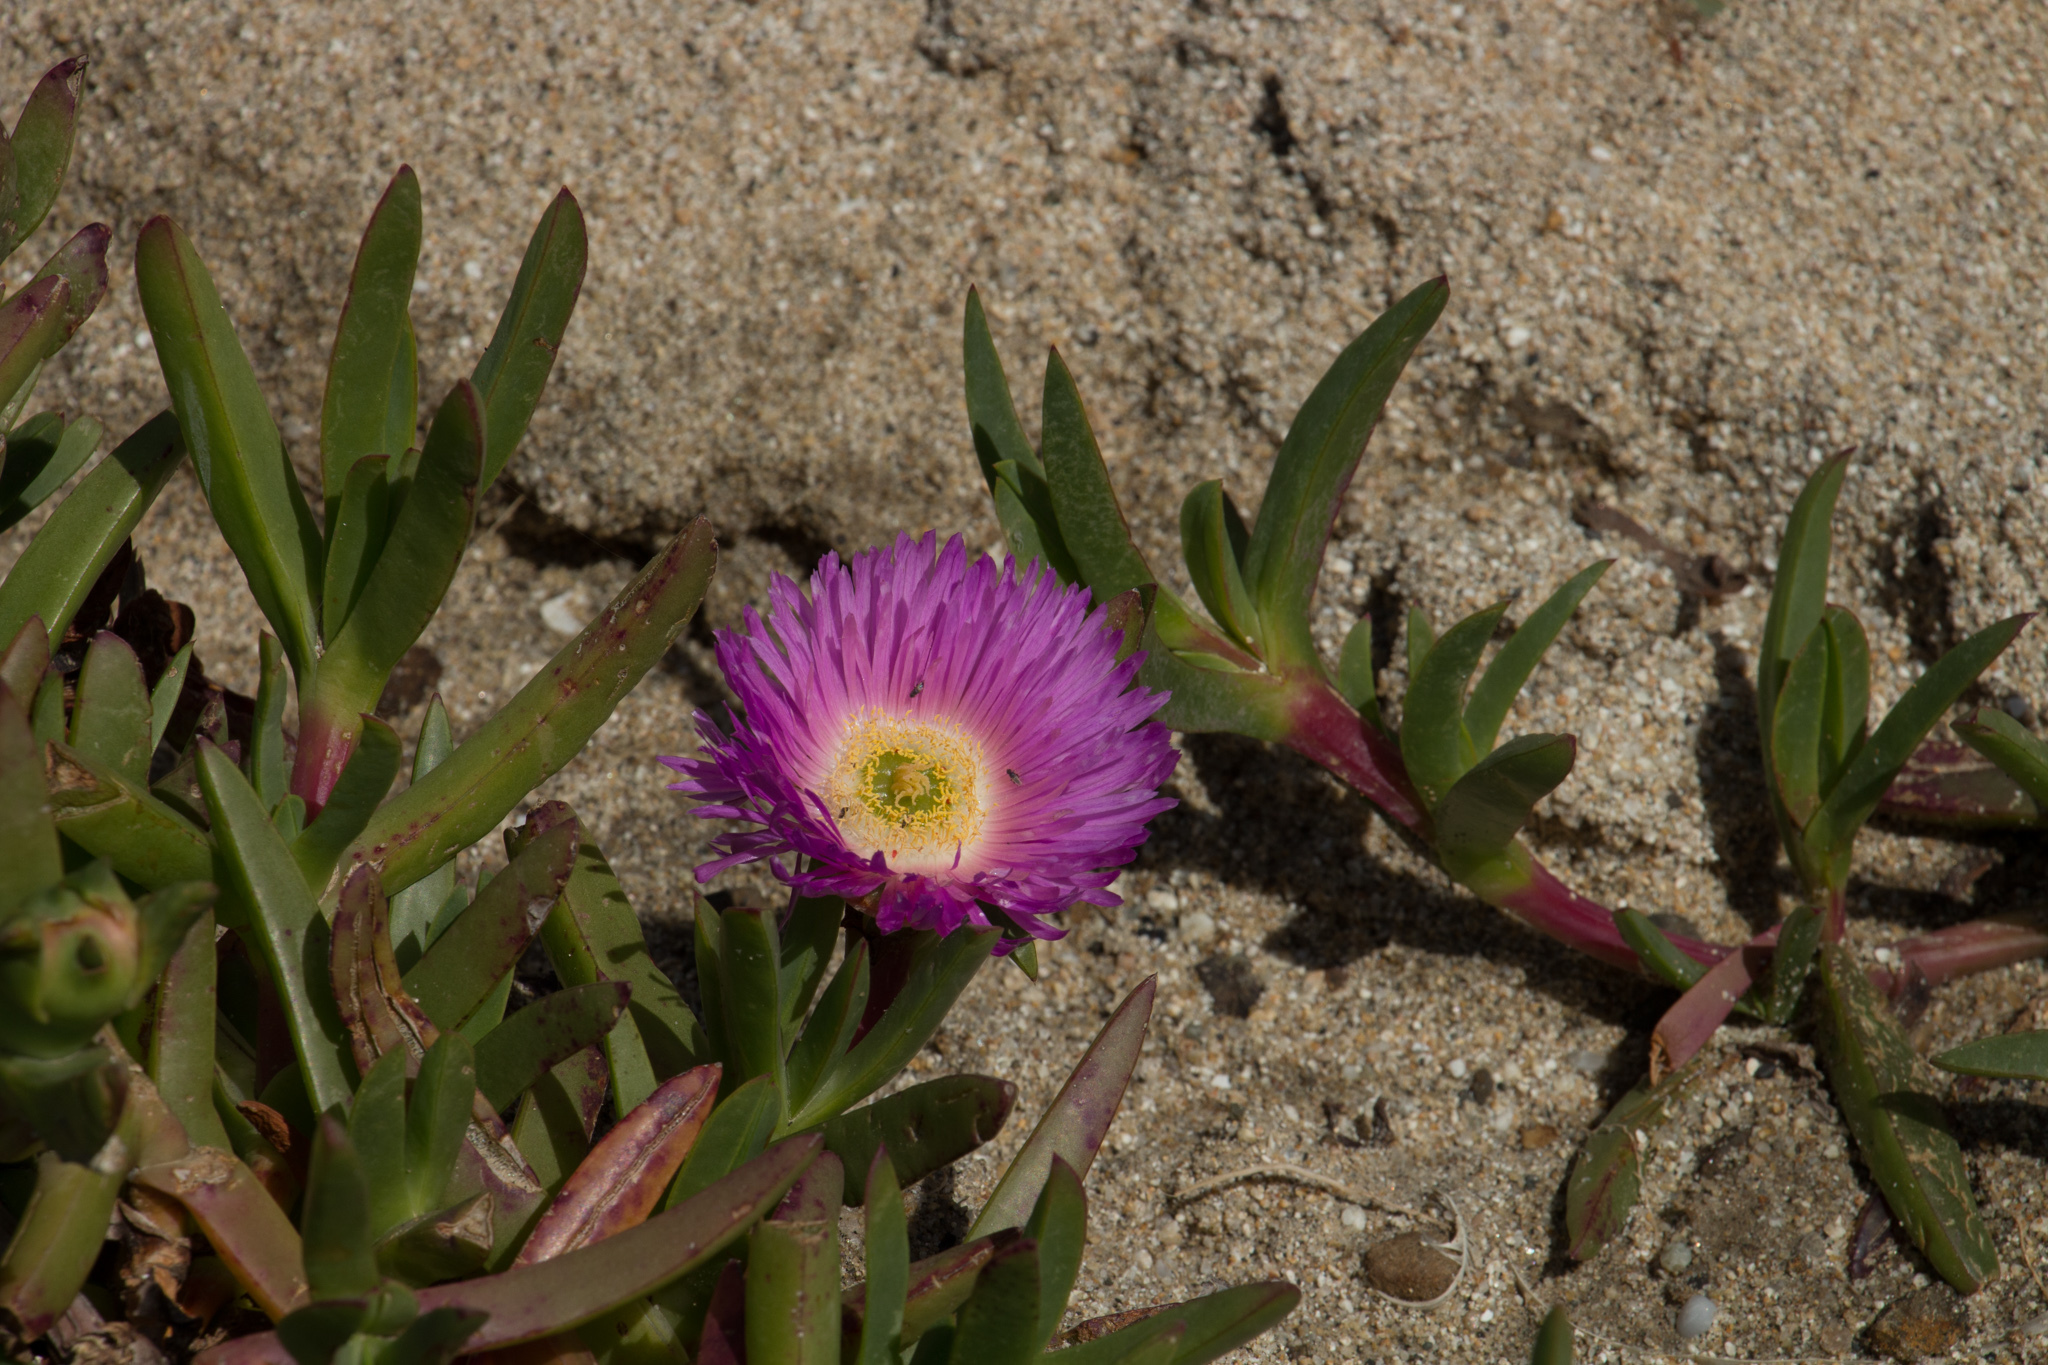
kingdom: Plantae
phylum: Tracheophyta
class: Magnoliopsida
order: Caryophyllales
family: Aizoaceae
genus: Carpobrotus
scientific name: Carpobrotus chilensis
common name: Sea fig
